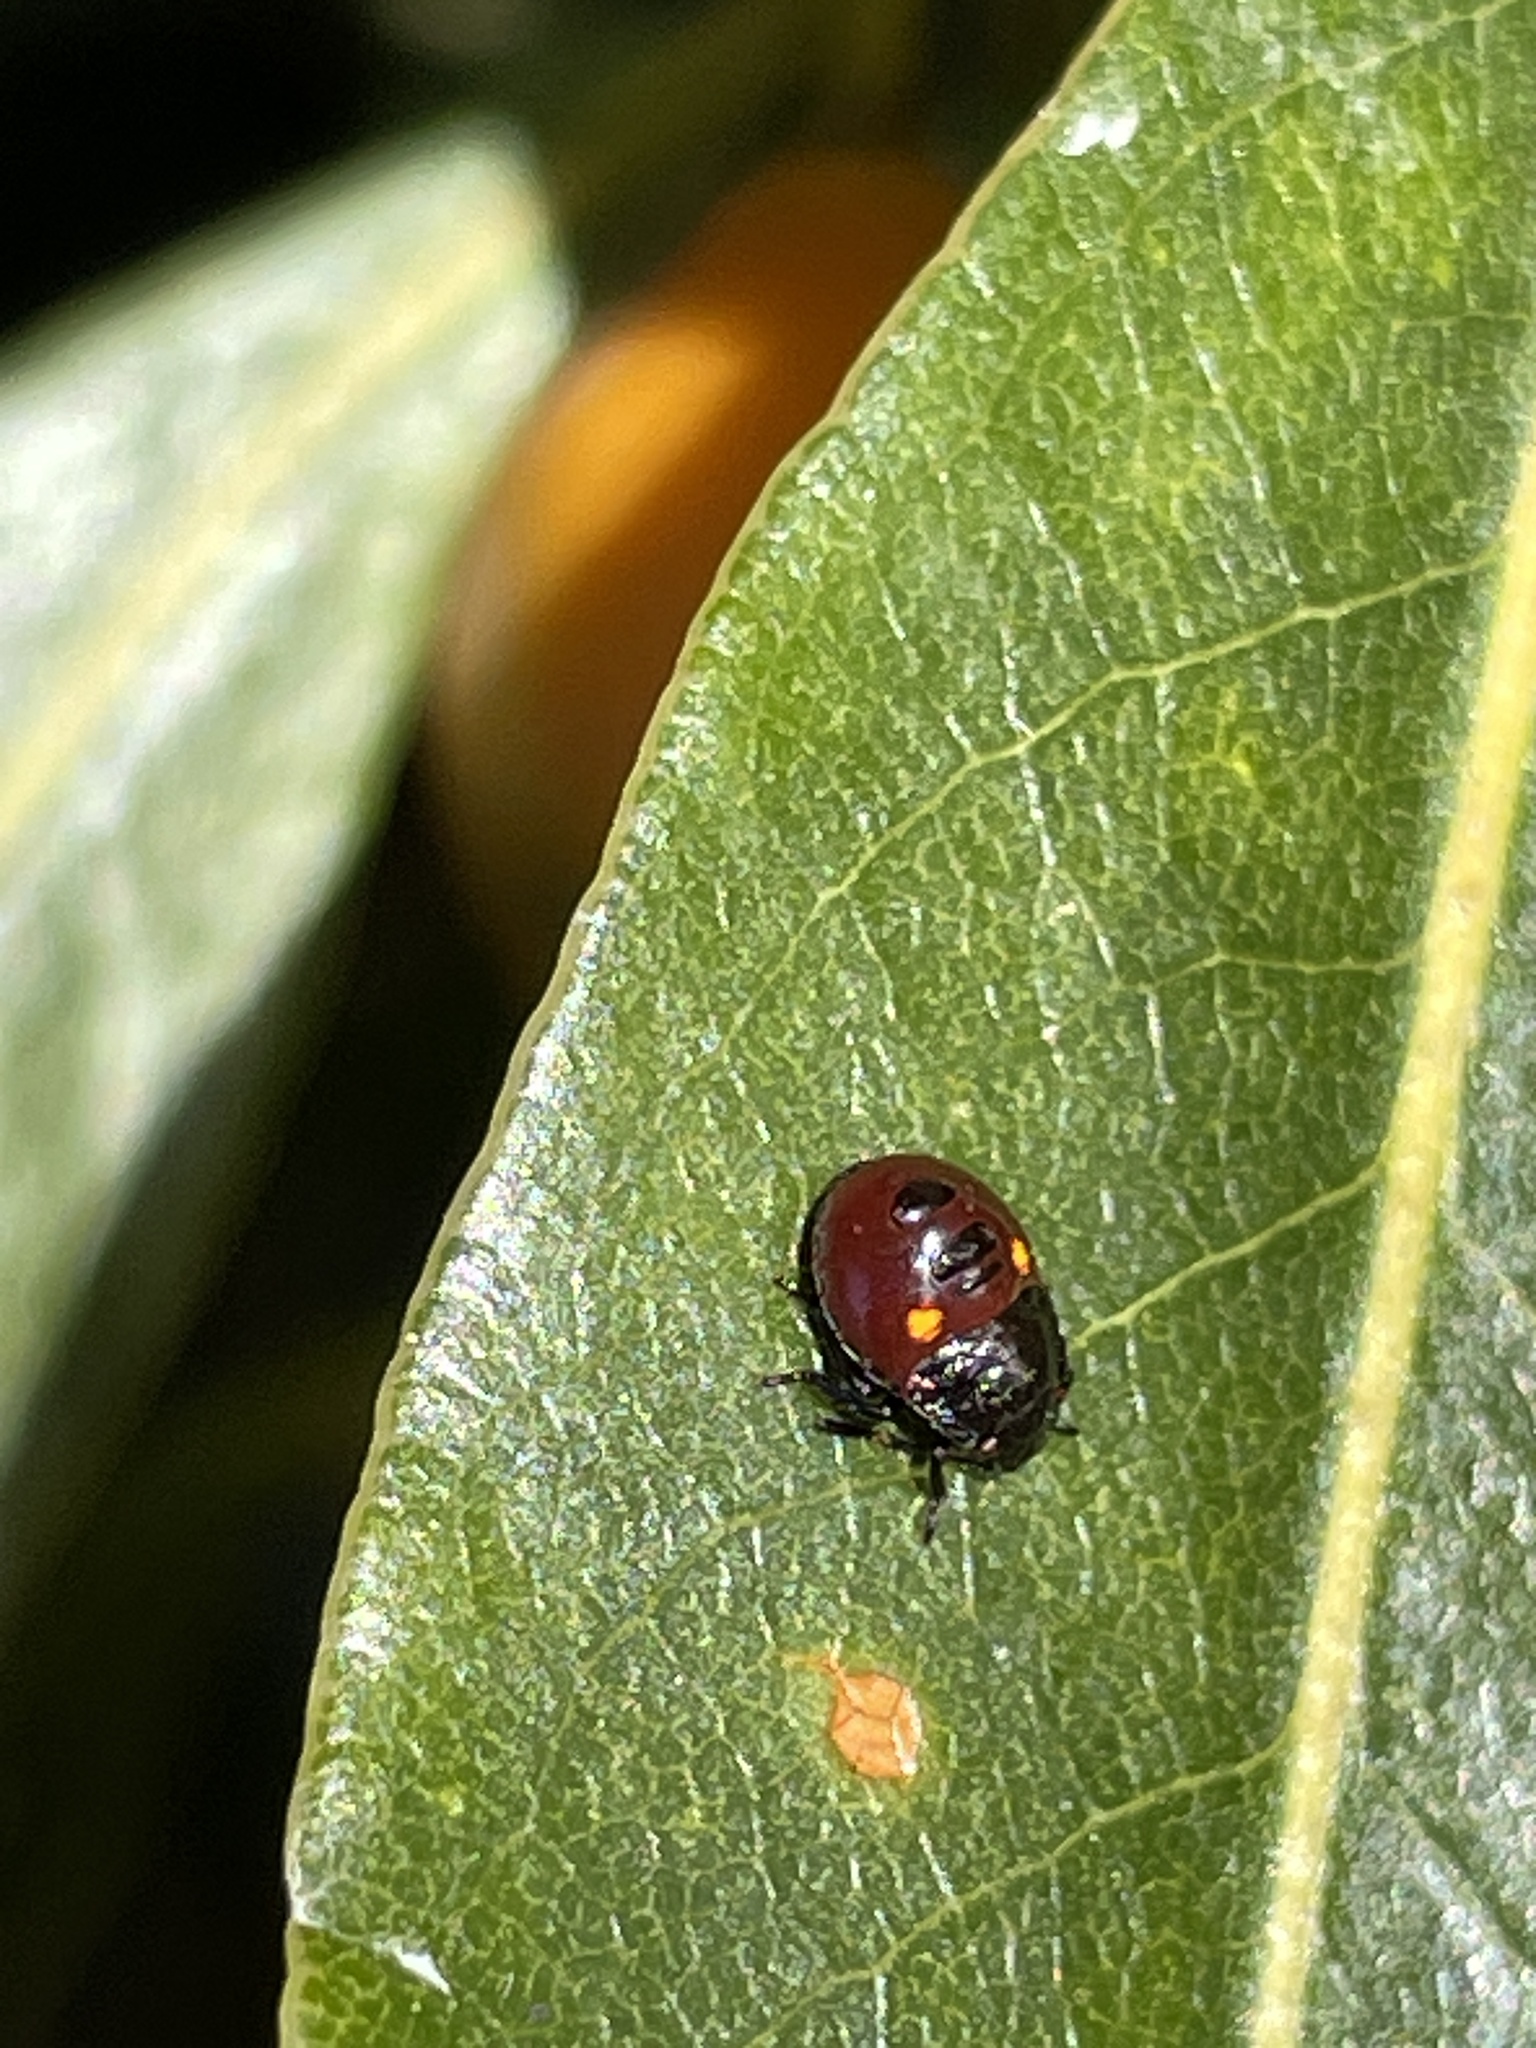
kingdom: Animalia
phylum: Arthropoda
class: Insecta
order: Hemiptera
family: Pentatomidae
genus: Monteithiella
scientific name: Monteithiella
